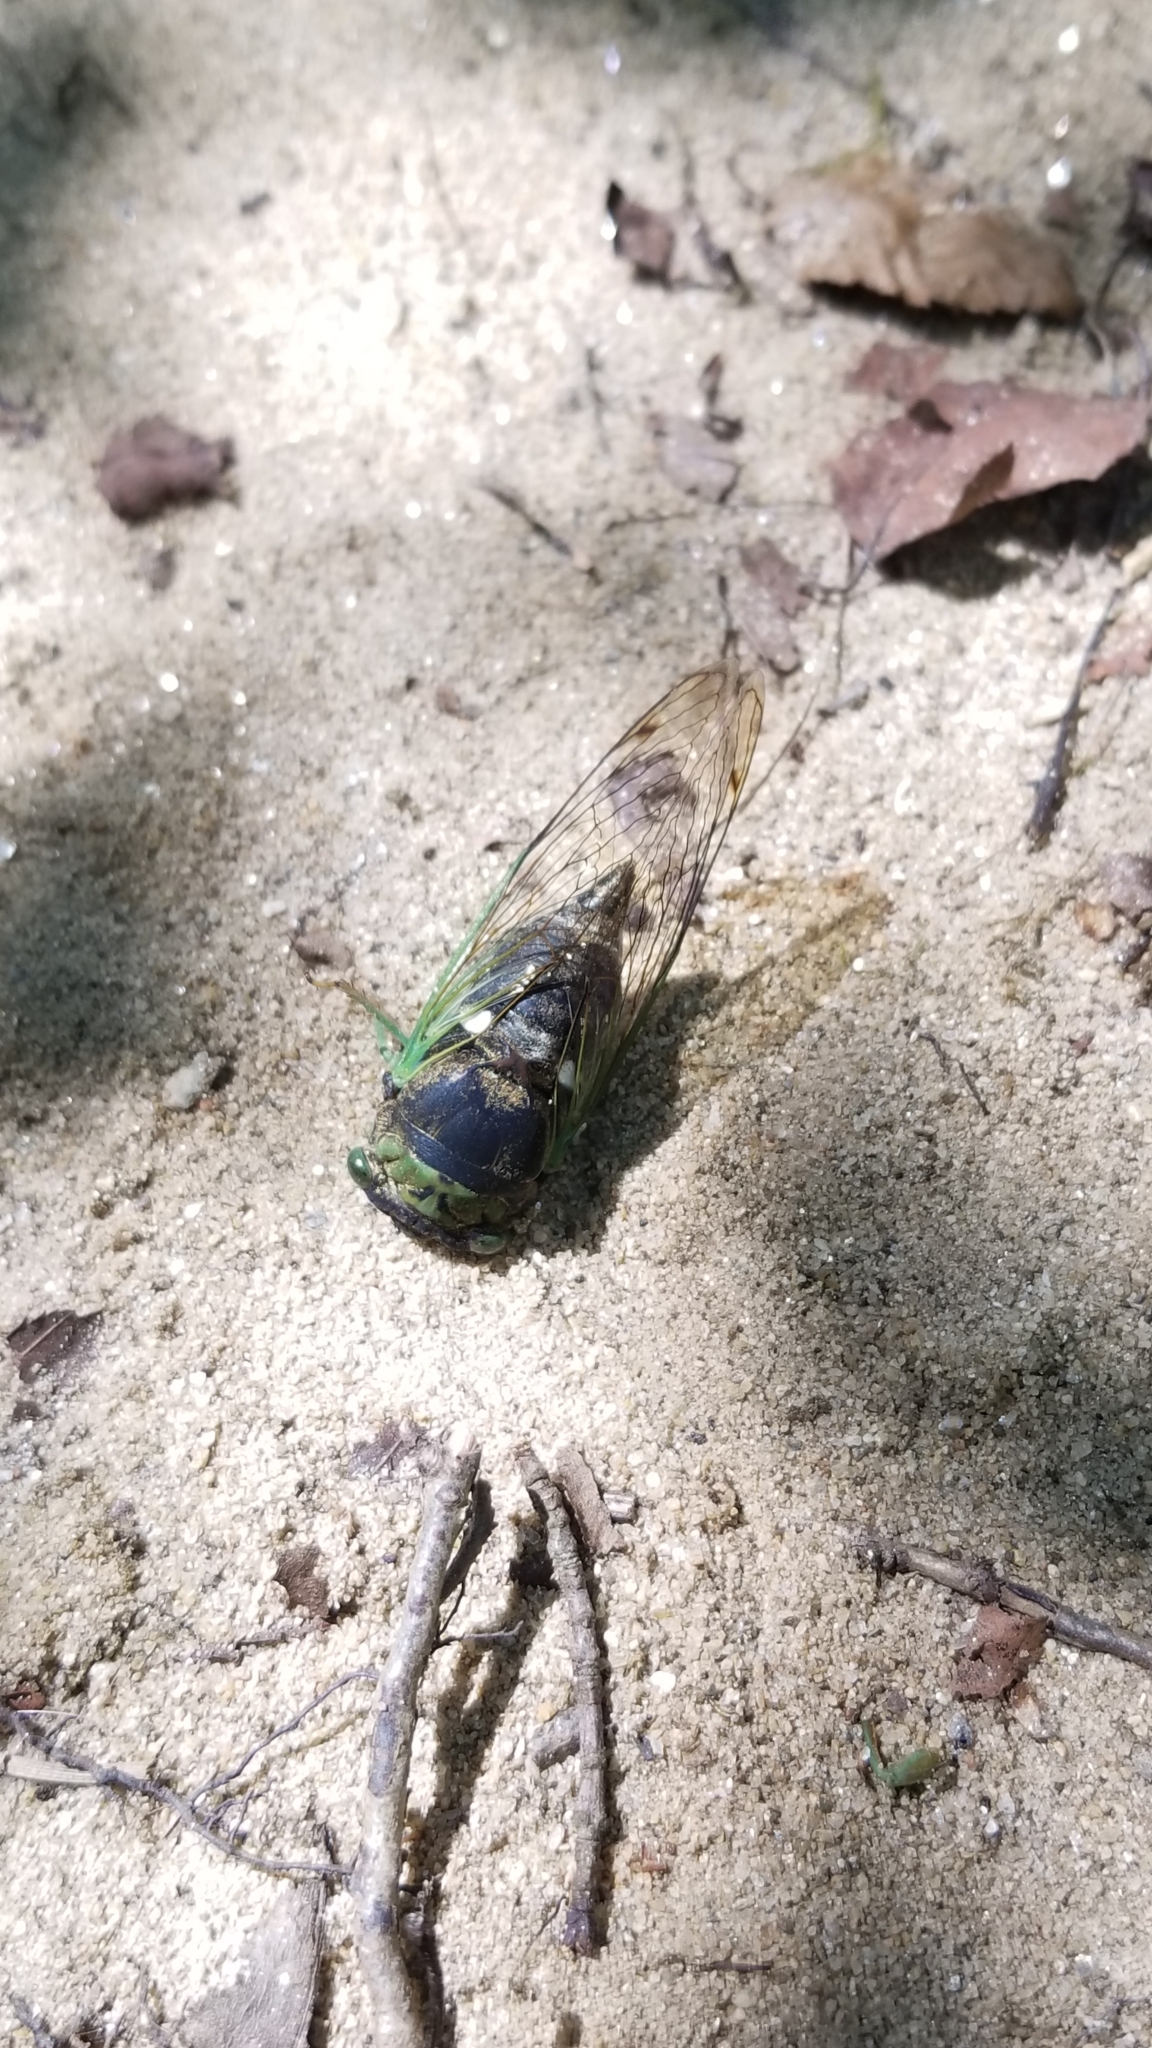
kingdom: Animalia
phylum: Arthropoda
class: Insecta
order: Hemiptera
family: Cicadidae
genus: Neotibicen
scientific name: Neotibicen tibicen
